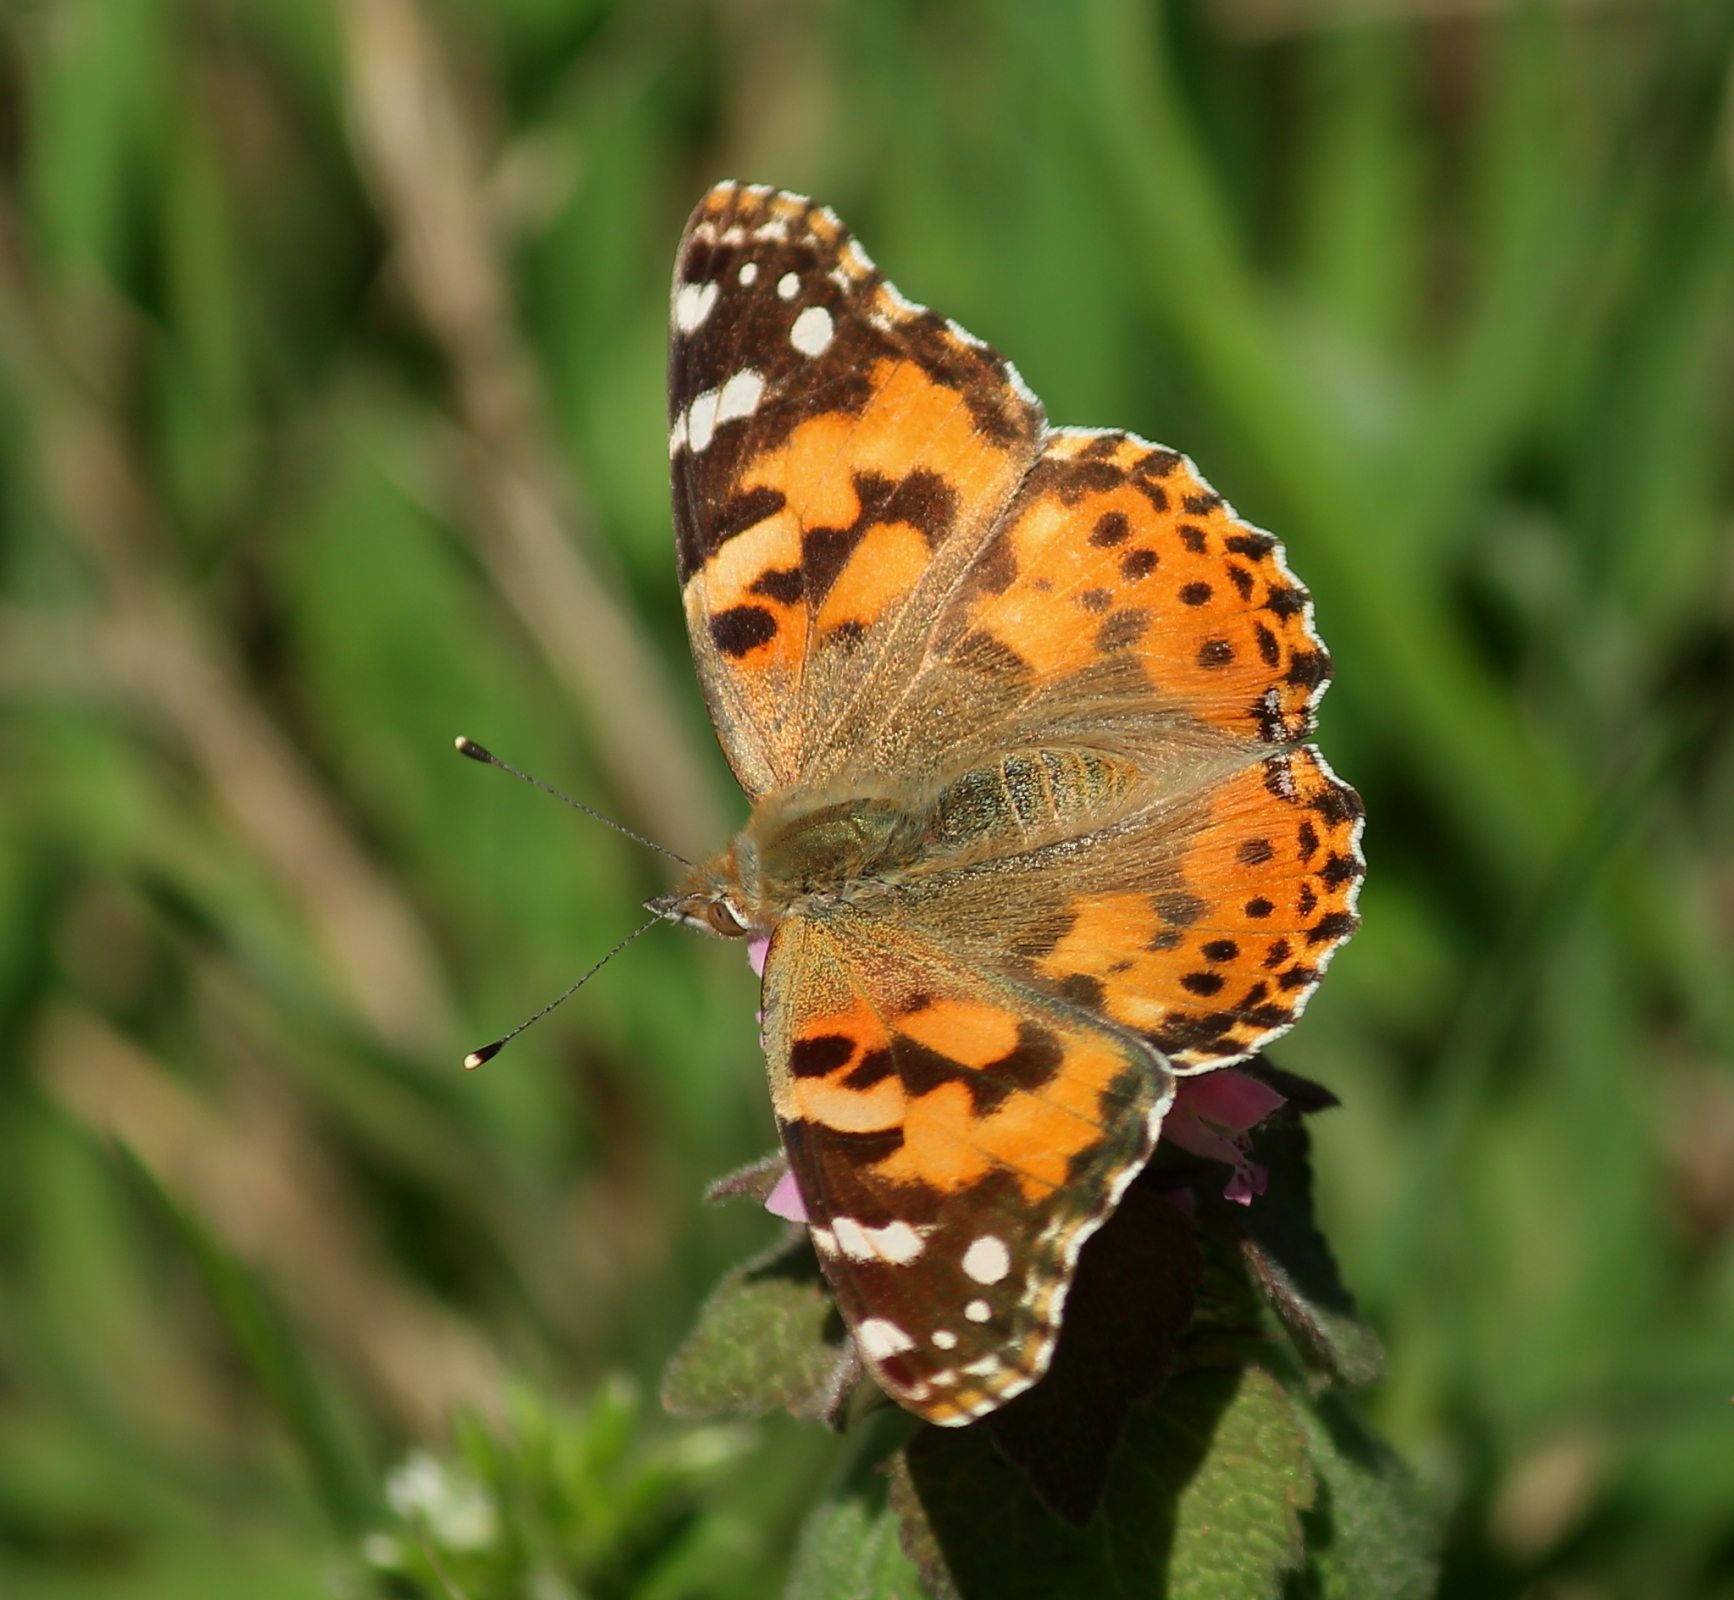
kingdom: Animalia
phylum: Arthropoda
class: Insecta
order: Lepidoptera
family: Nymphalidae
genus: Vanessa
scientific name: Vanessa cardui
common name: Painted lady
